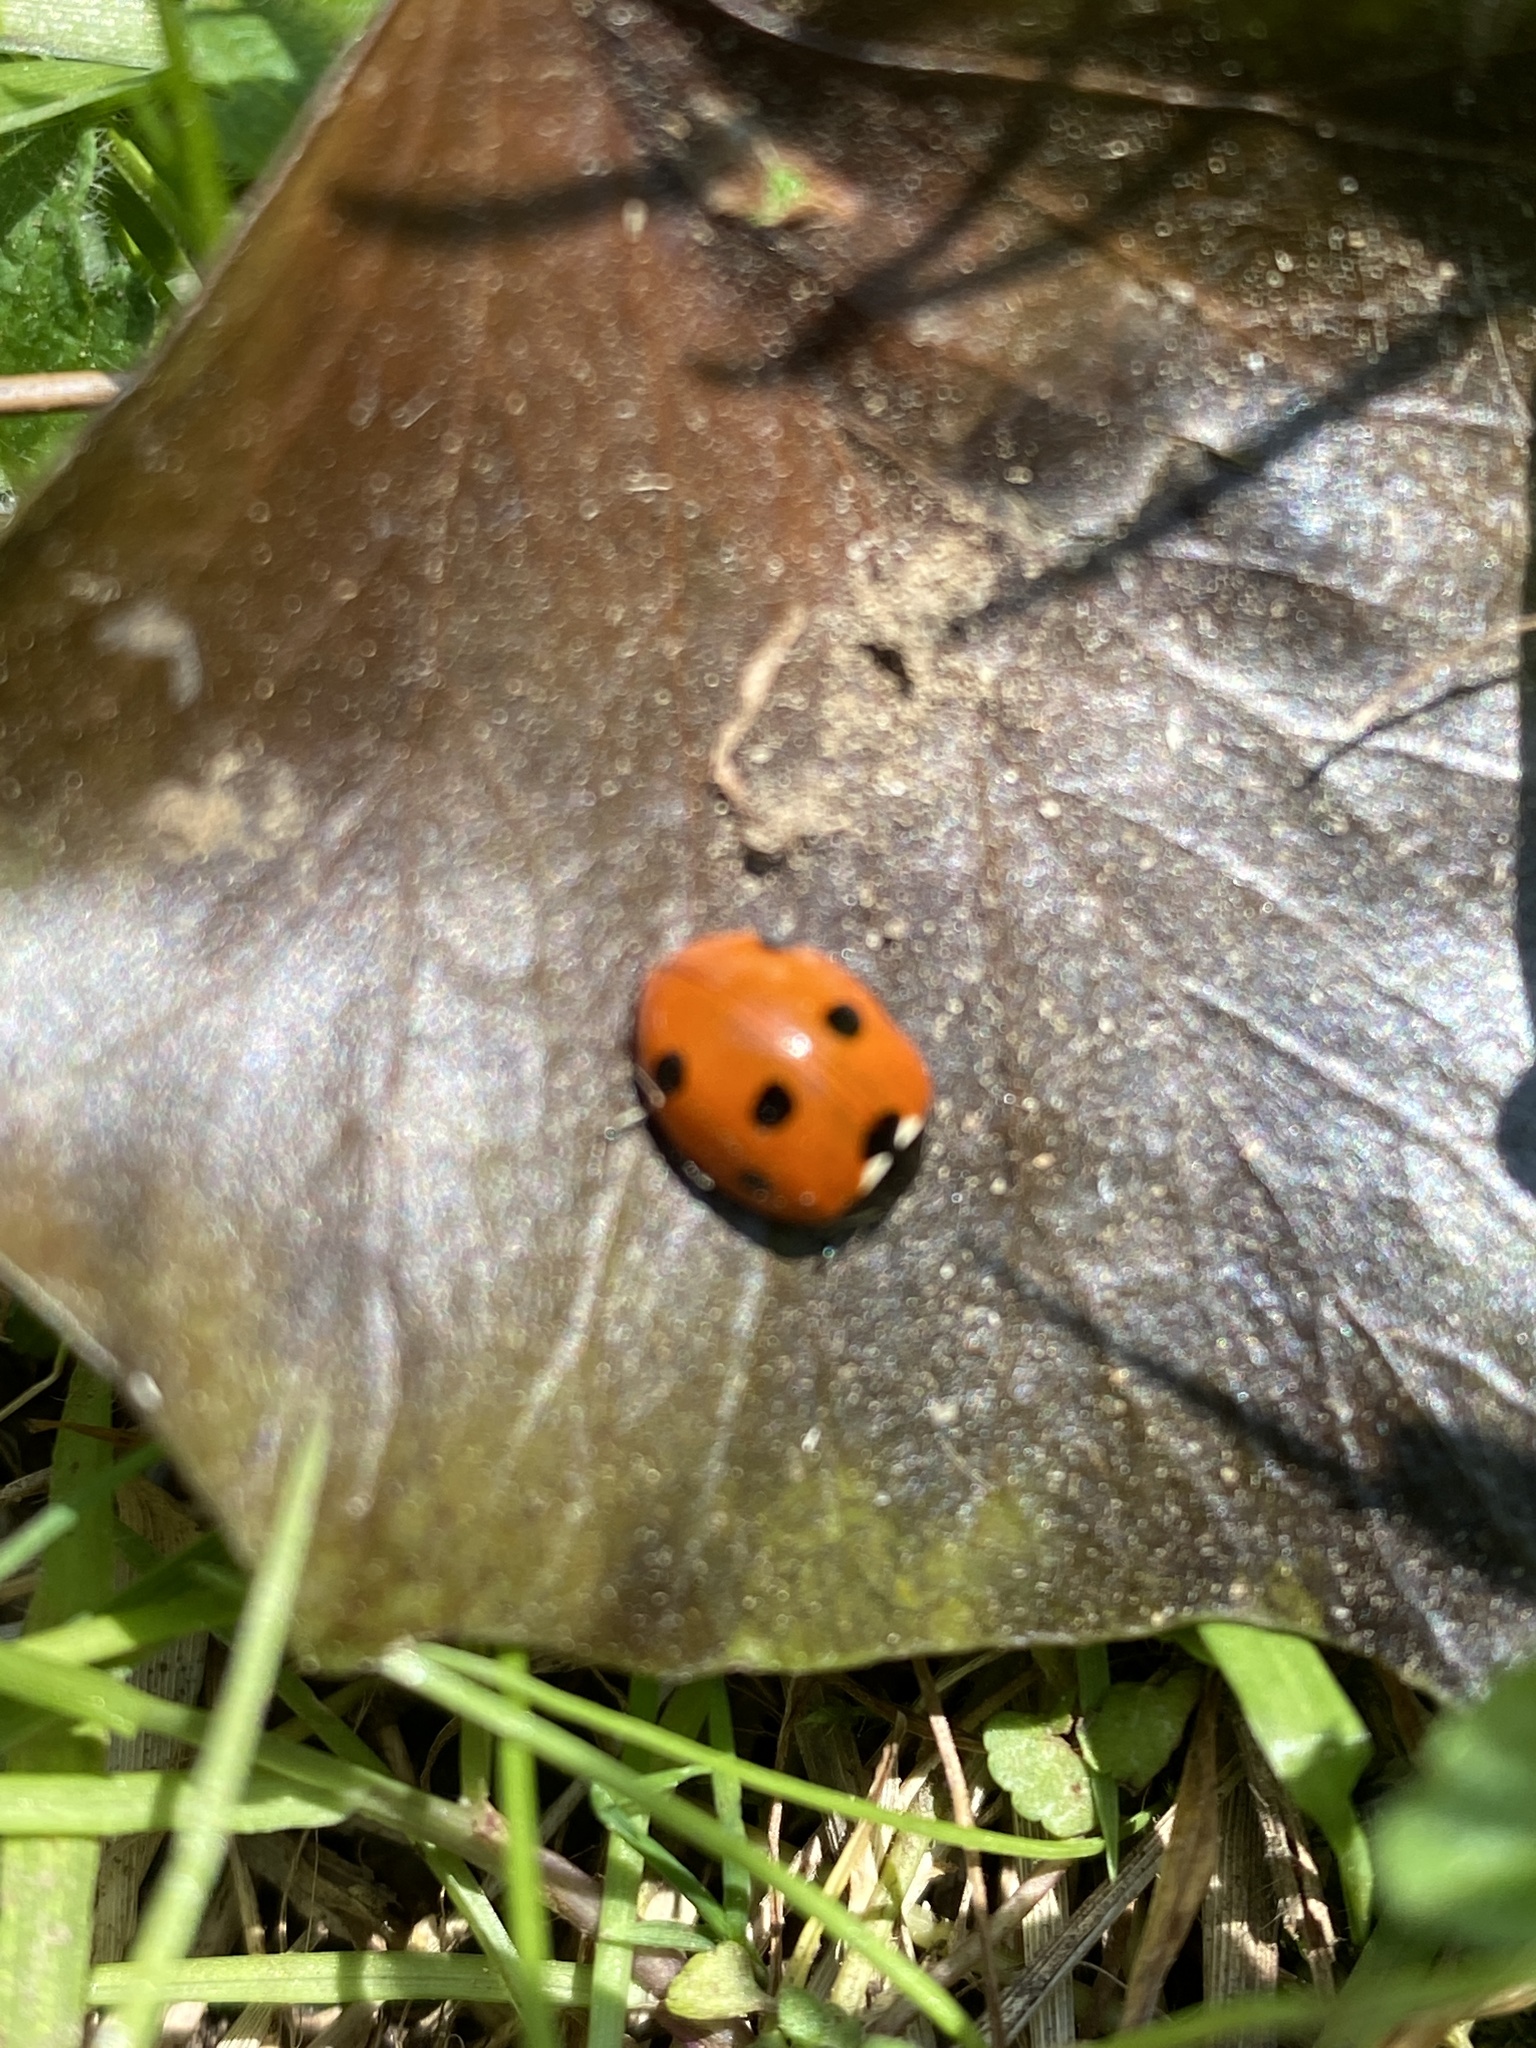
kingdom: Animalia
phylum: Arthropoda
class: Insecta
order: Coleoptera
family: Coccinellidae
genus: Coccinella
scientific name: Coccinella septempunctata
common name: Sevenspotted lady beetle
